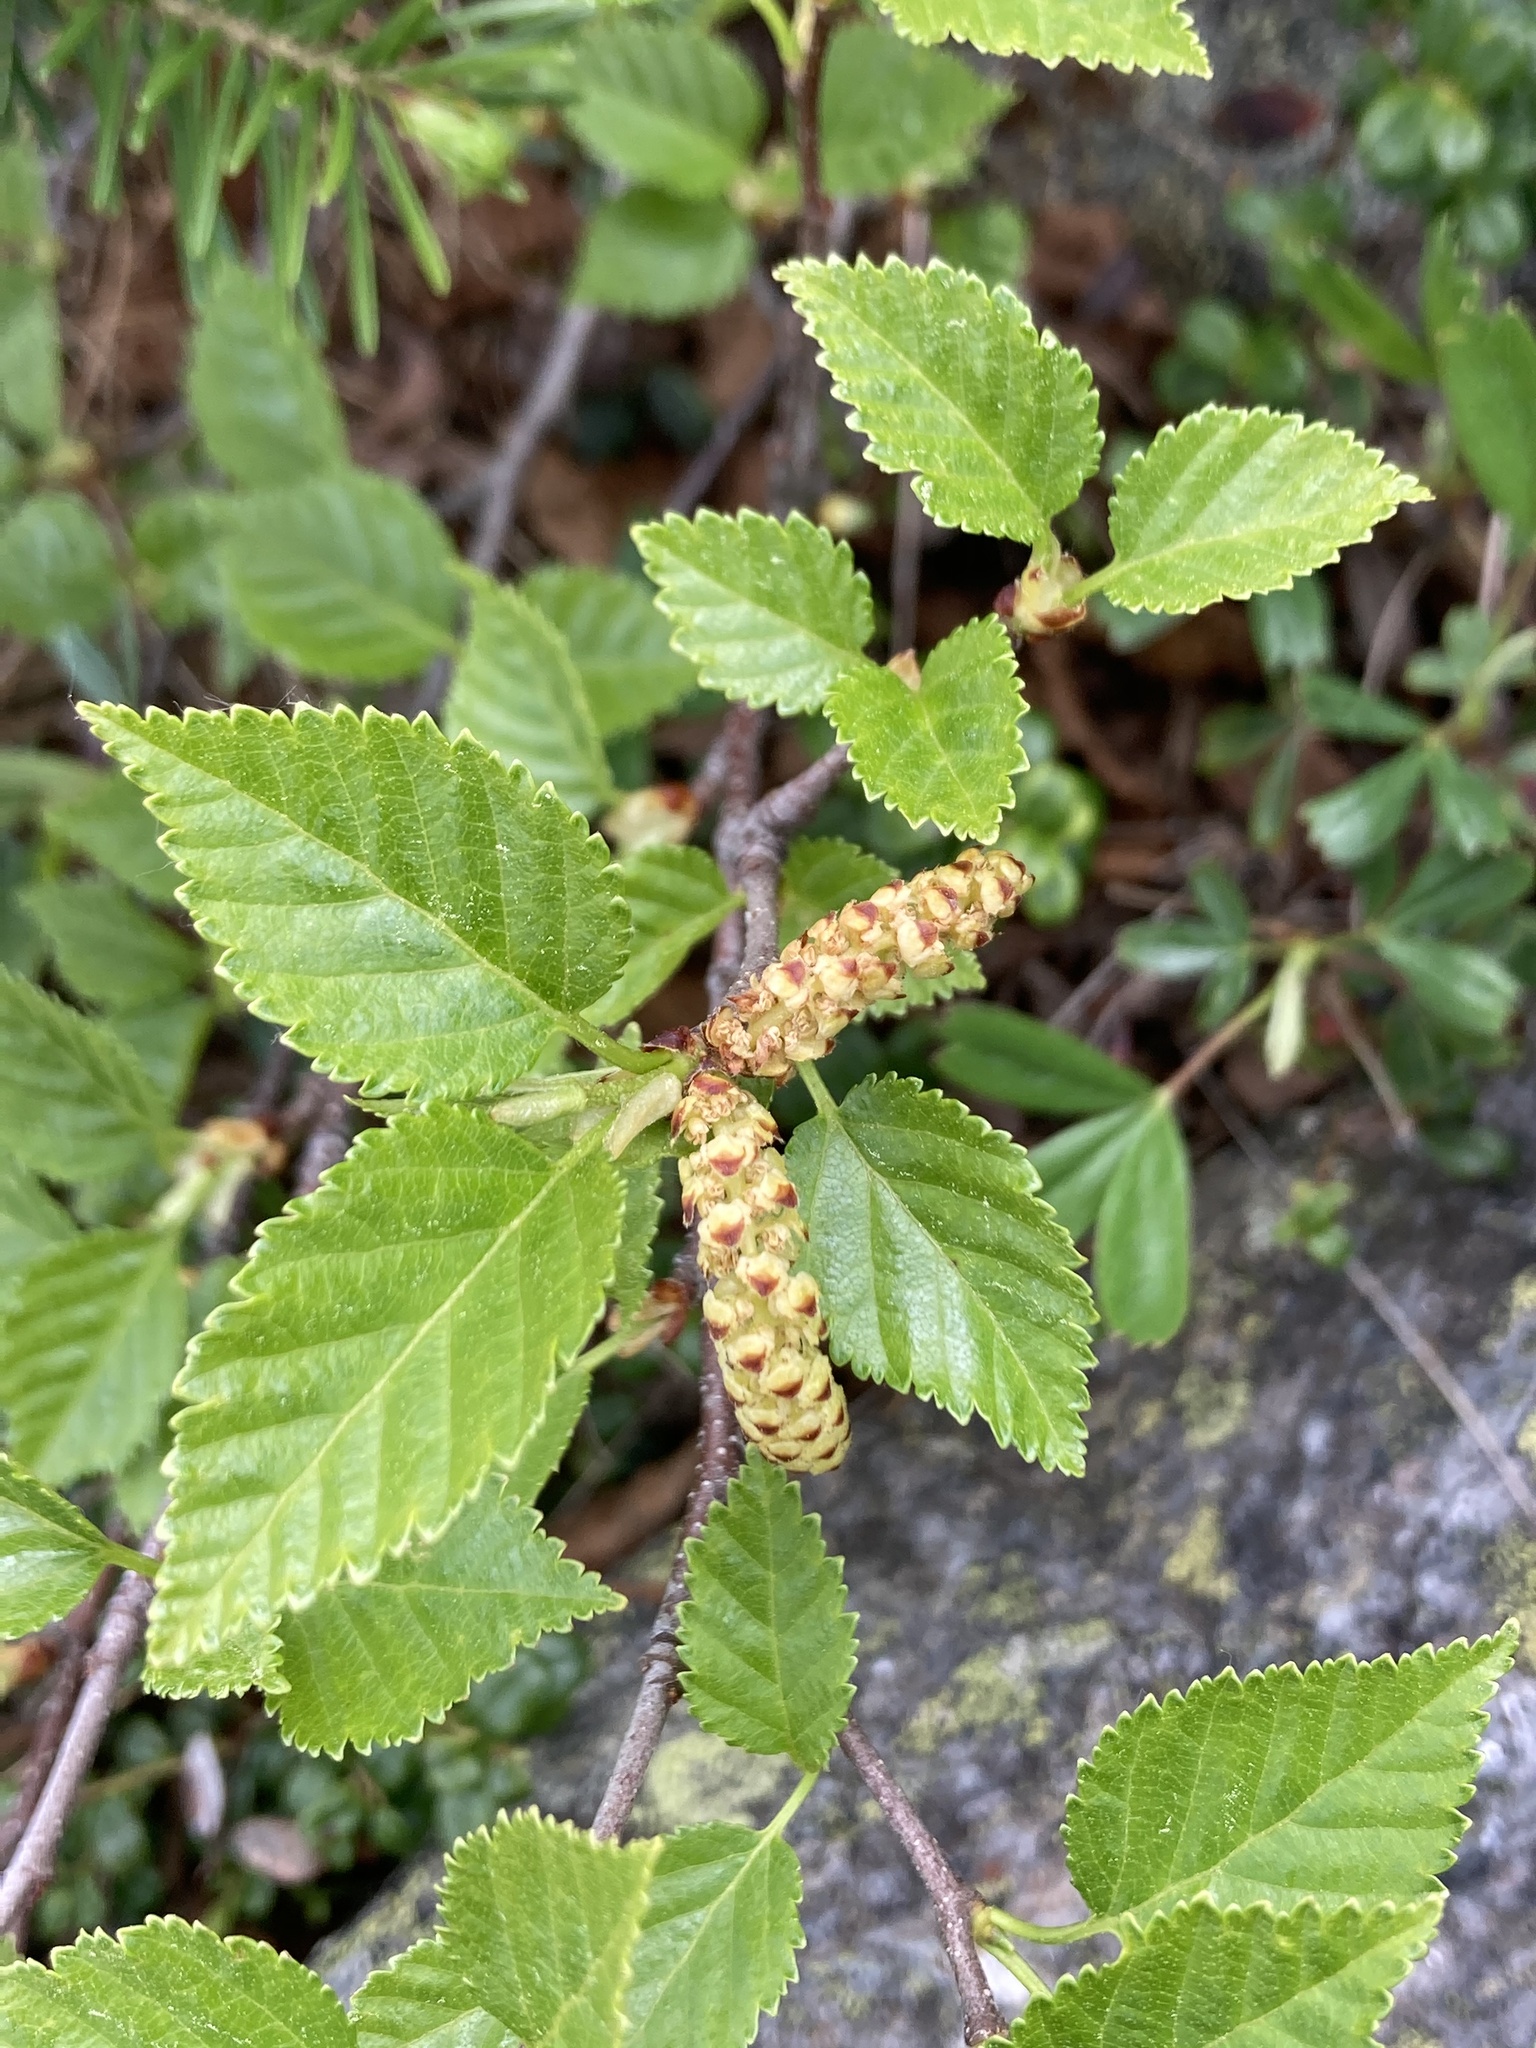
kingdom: Plantae
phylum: Tracheophyta
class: Magnoliopsida
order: Fagales
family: Betulaceae
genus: Betula
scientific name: Betula minor
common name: Dwarf birch
